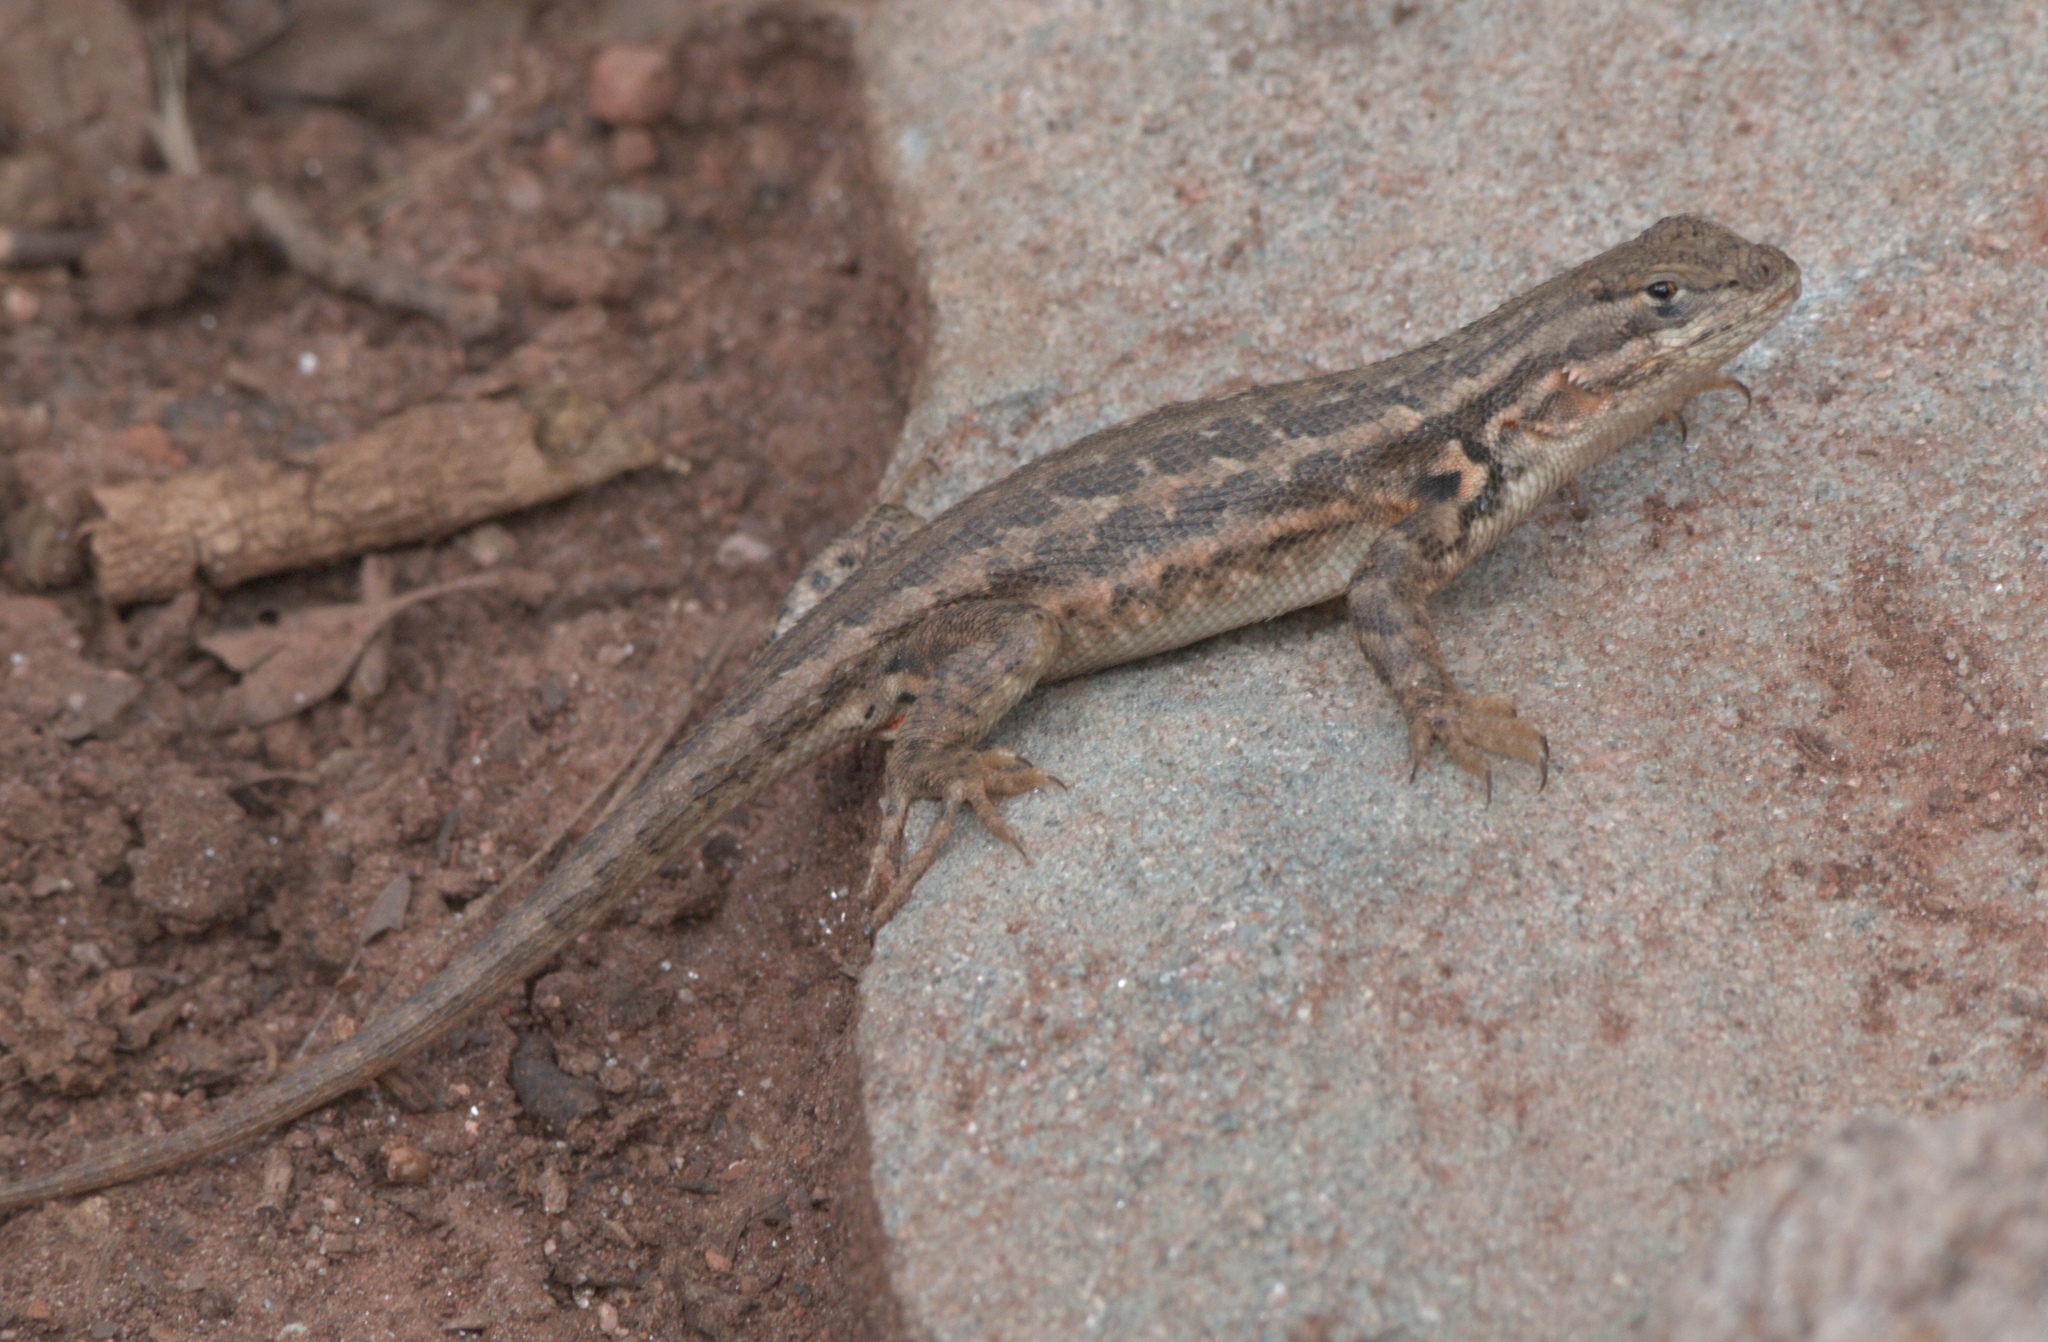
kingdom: Animalia
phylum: Chordata
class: Squamata
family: Phrynosomatidae
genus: Sceloporus
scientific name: Sceloporus graciosus
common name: Sagebrush lizard
